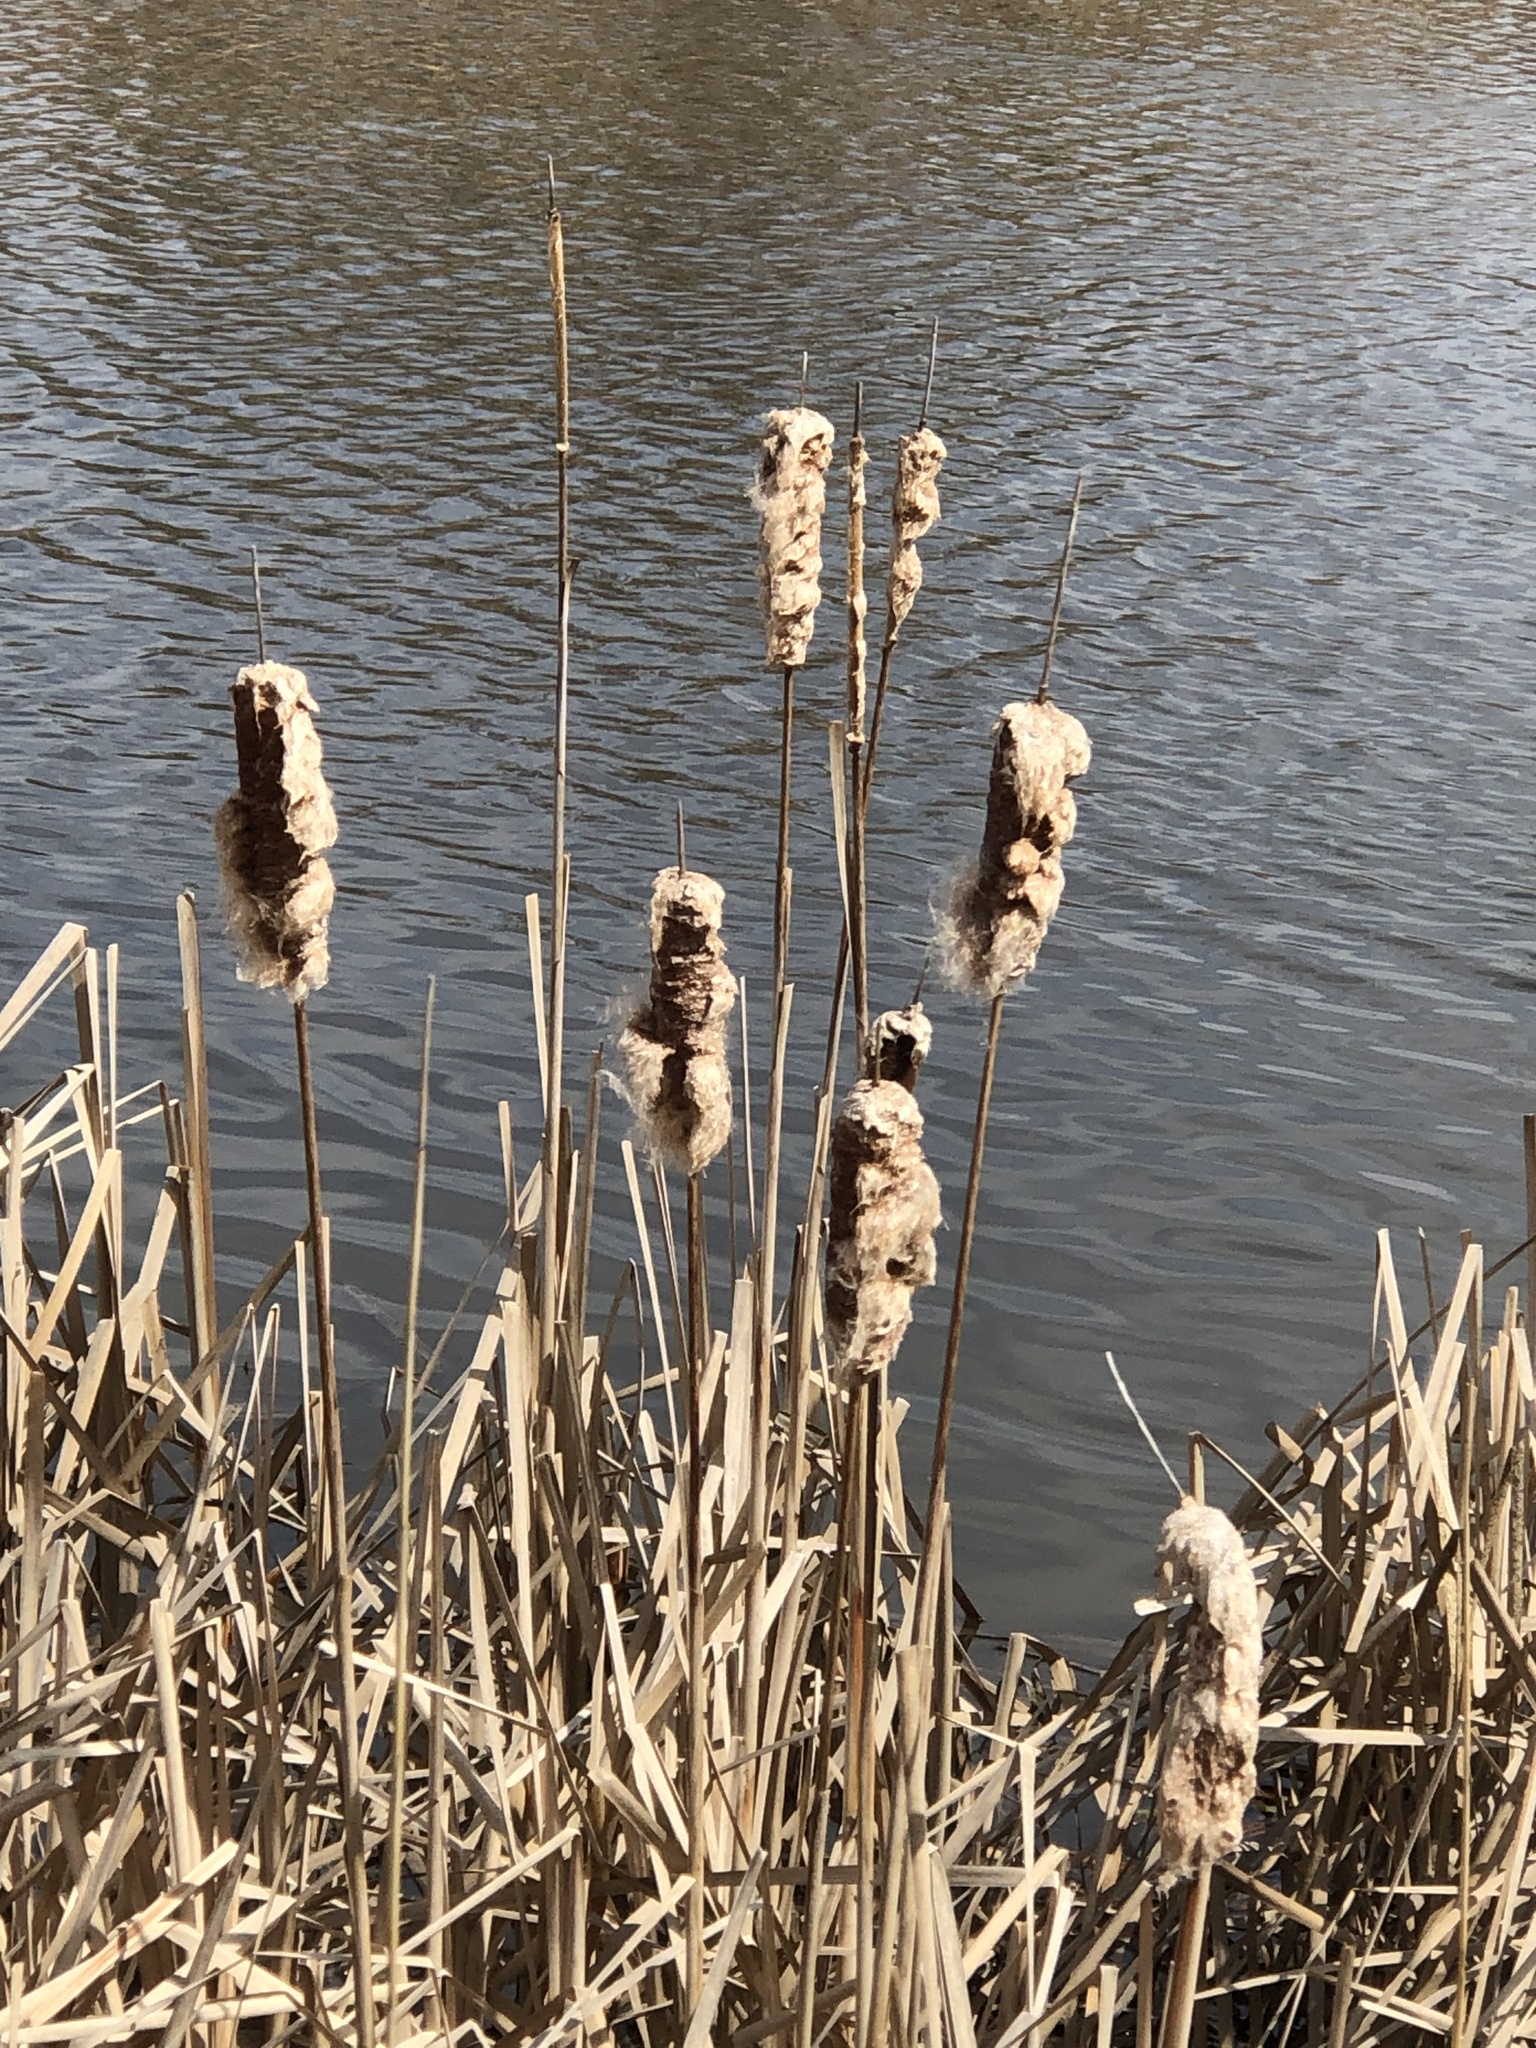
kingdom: Plantae
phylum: Tracheophyta
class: Liliopsida
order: Poales
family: Typhaceae
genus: Typha
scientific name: Typha latifolia
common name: Broadleaf cattail
